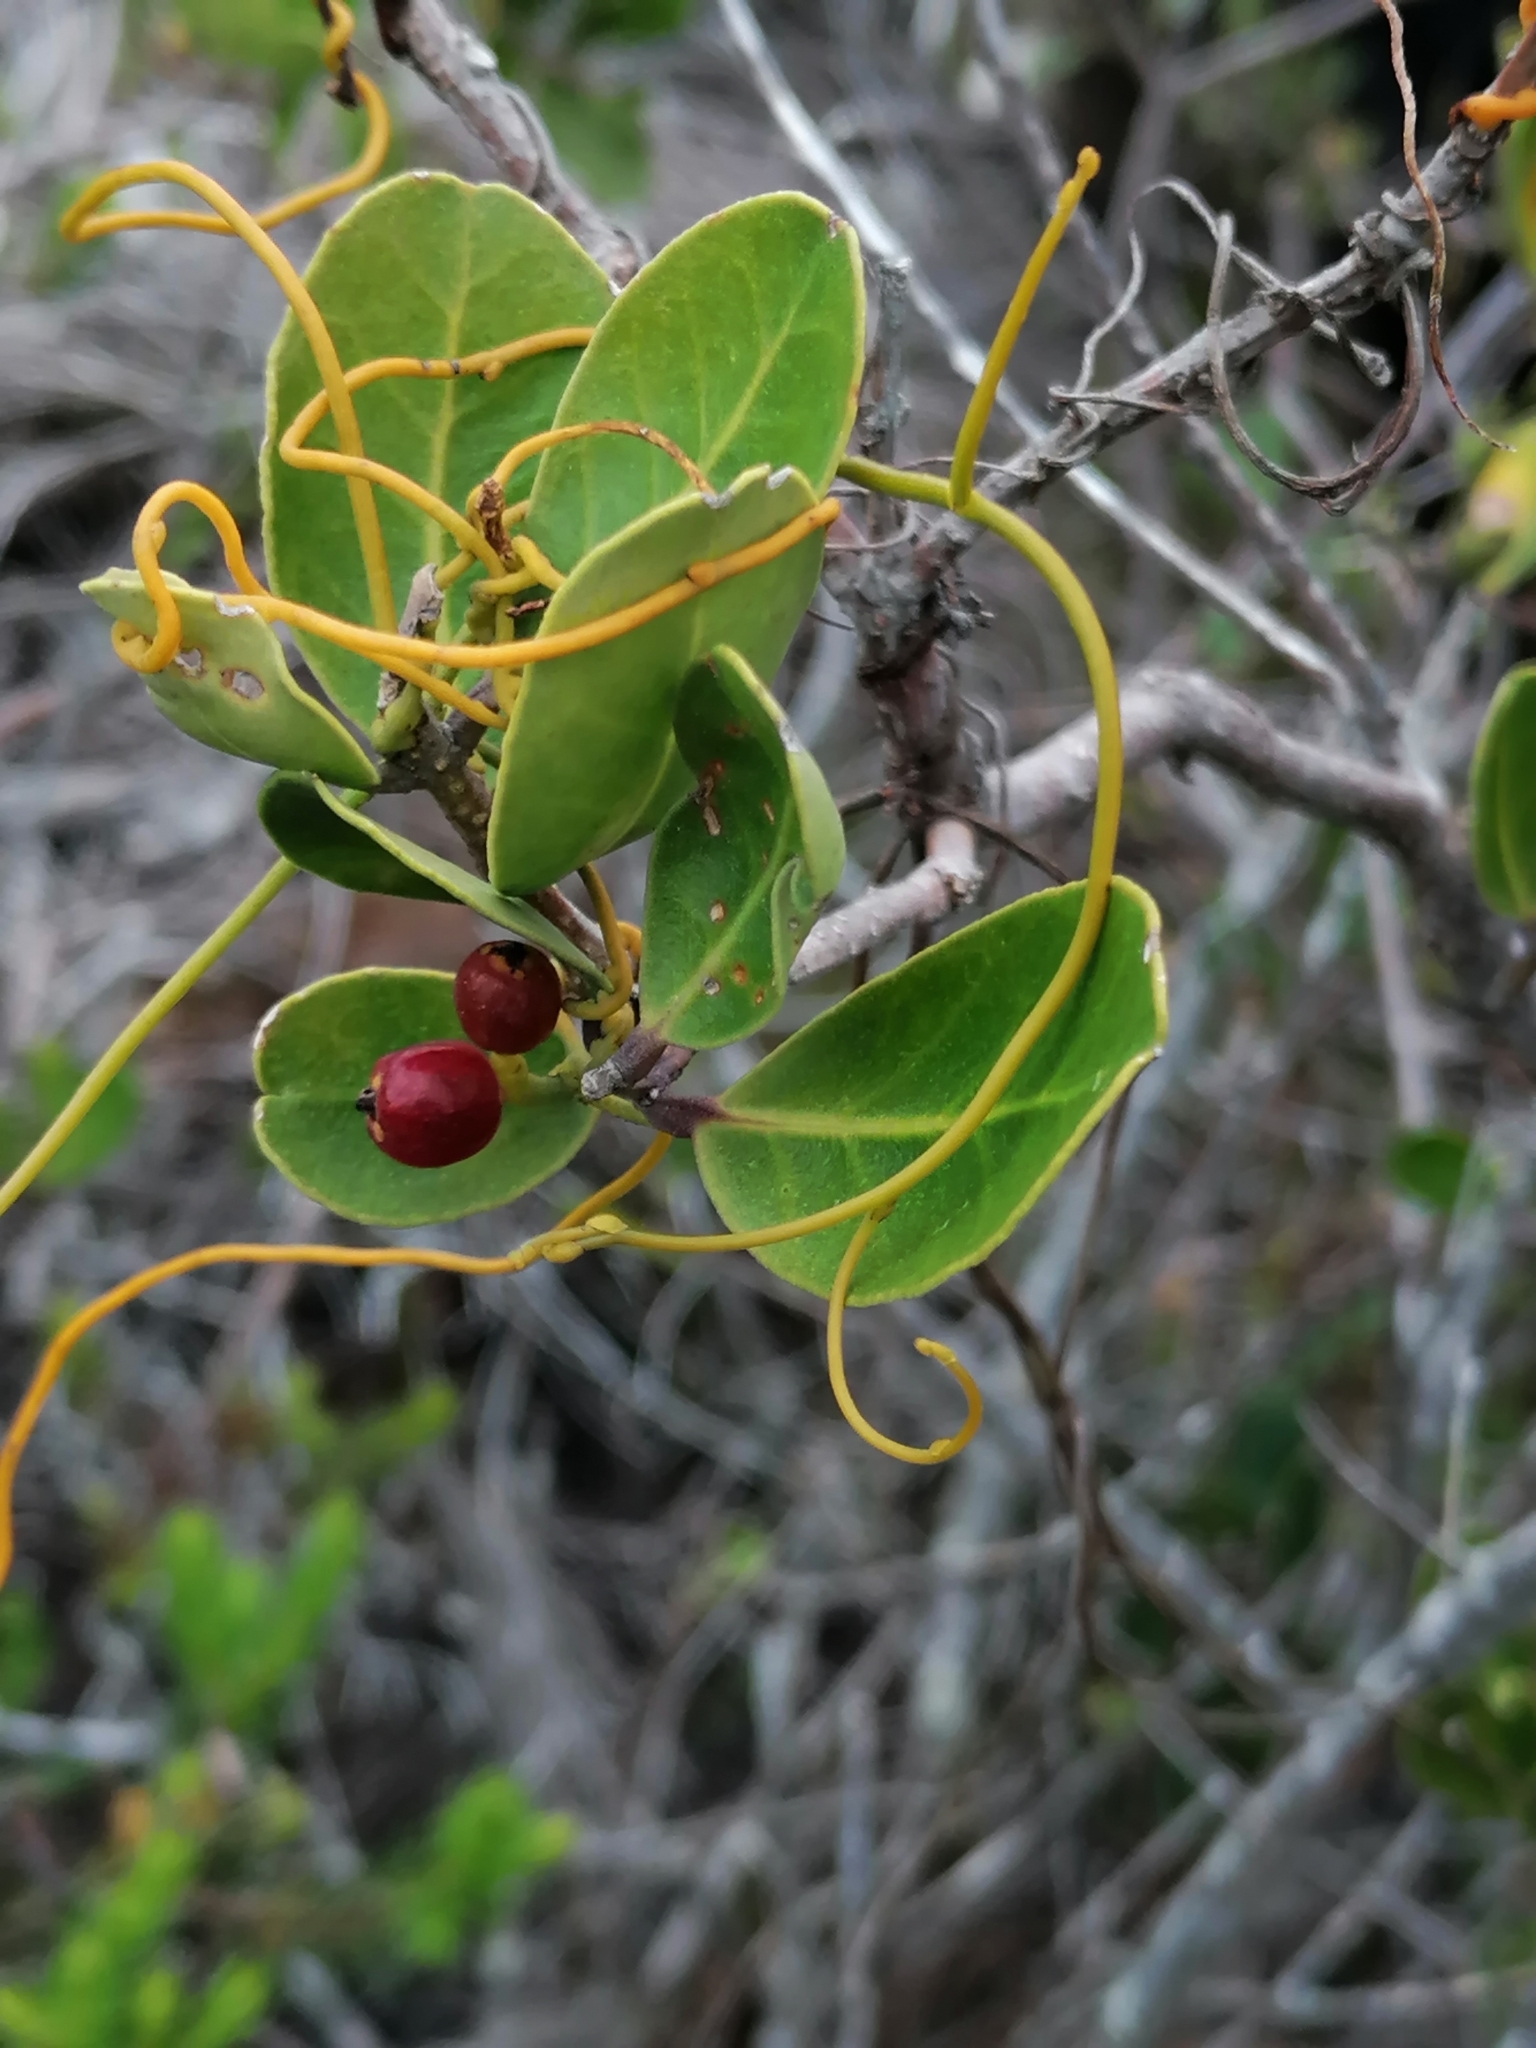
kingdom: Plantae
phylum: Tracheophyta
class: Magnoliopsida
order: Laurales
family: Lauraceae
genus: Cassytha
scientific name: Cassytha ciliolata
